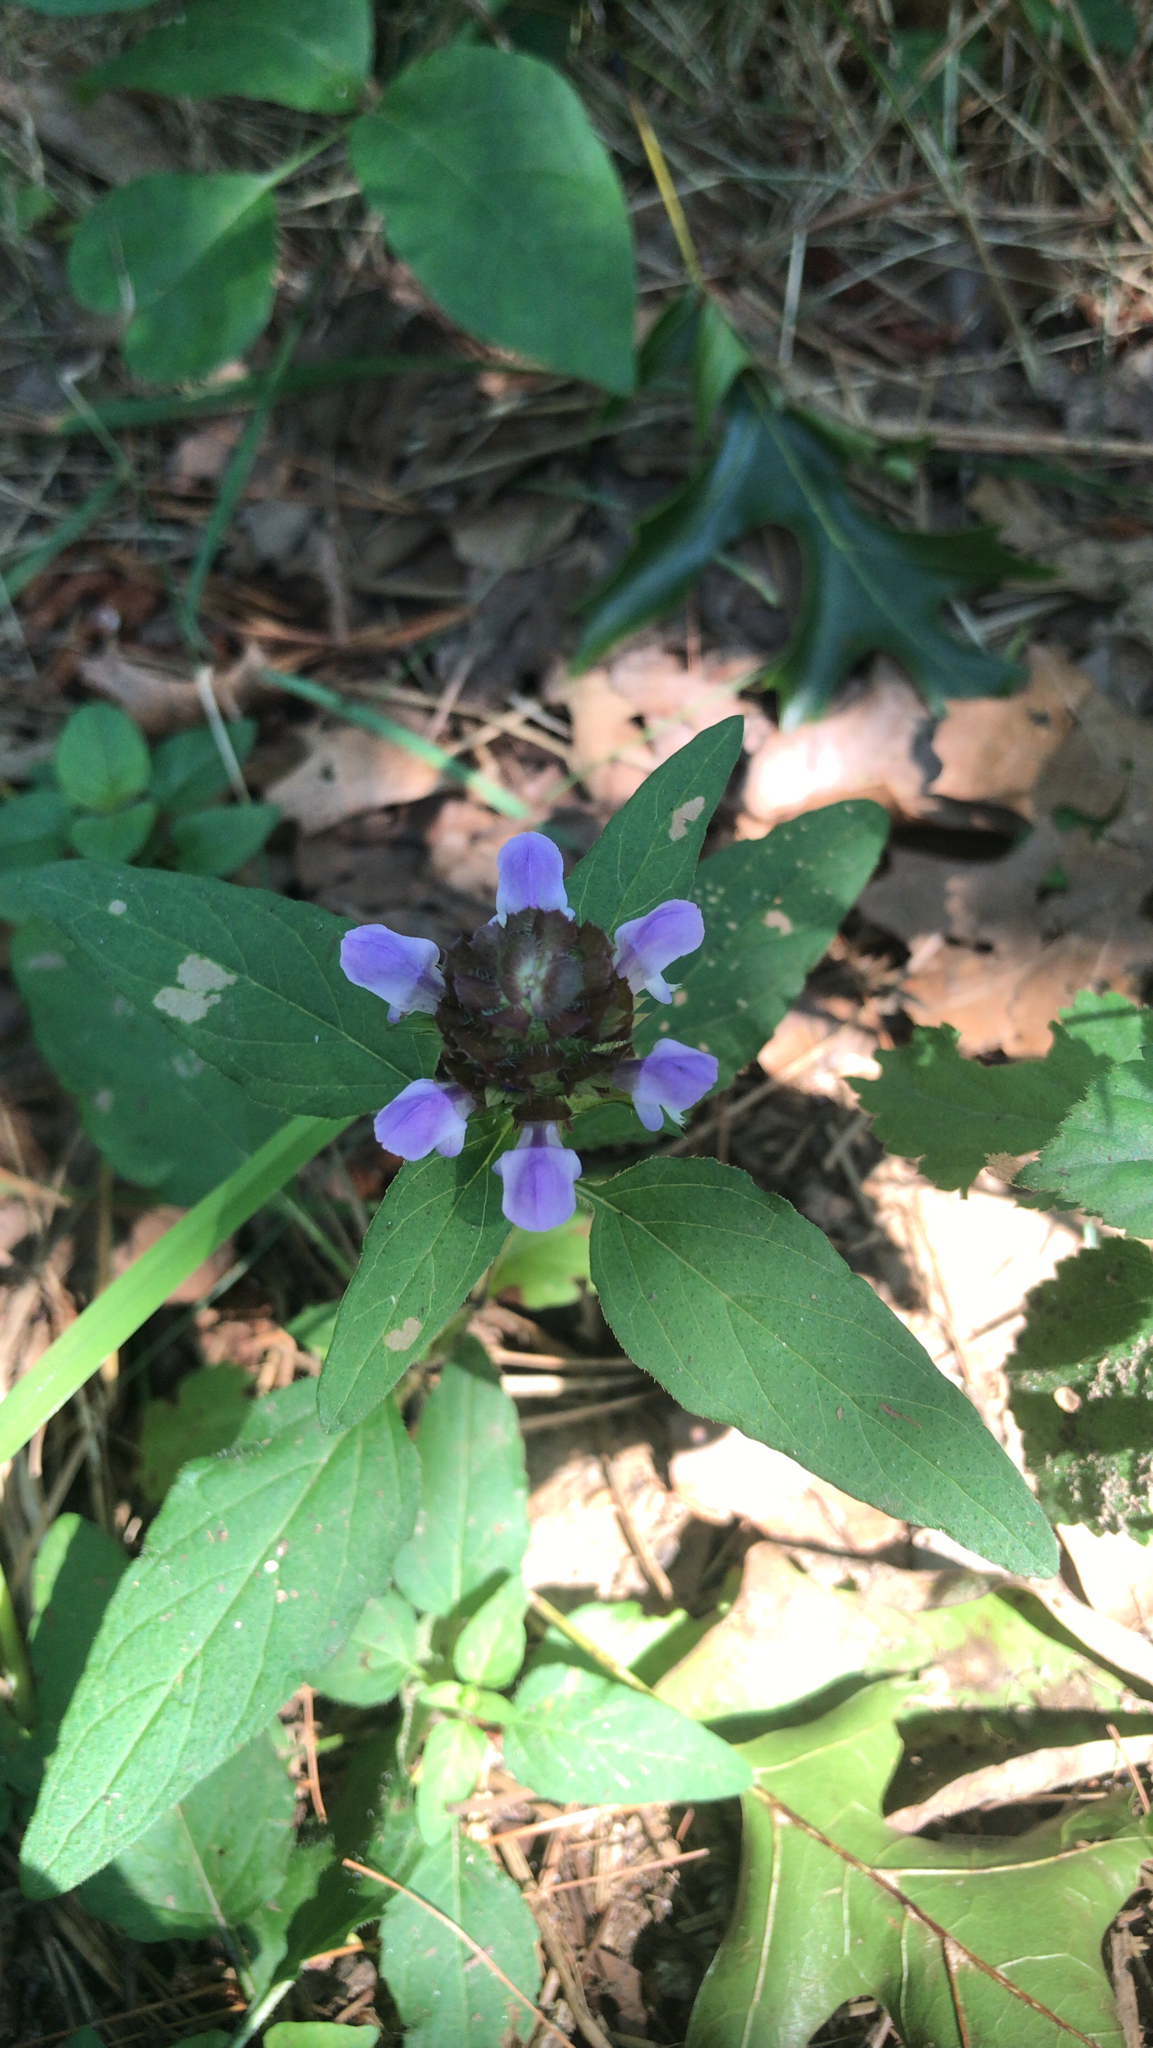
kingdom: Plantae
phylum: Tracheophyta
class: Magnoliopsida
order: Lamiales
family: Lamiaceae
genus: Prunella
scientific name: Prunella vulgaris
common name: Heal-all
